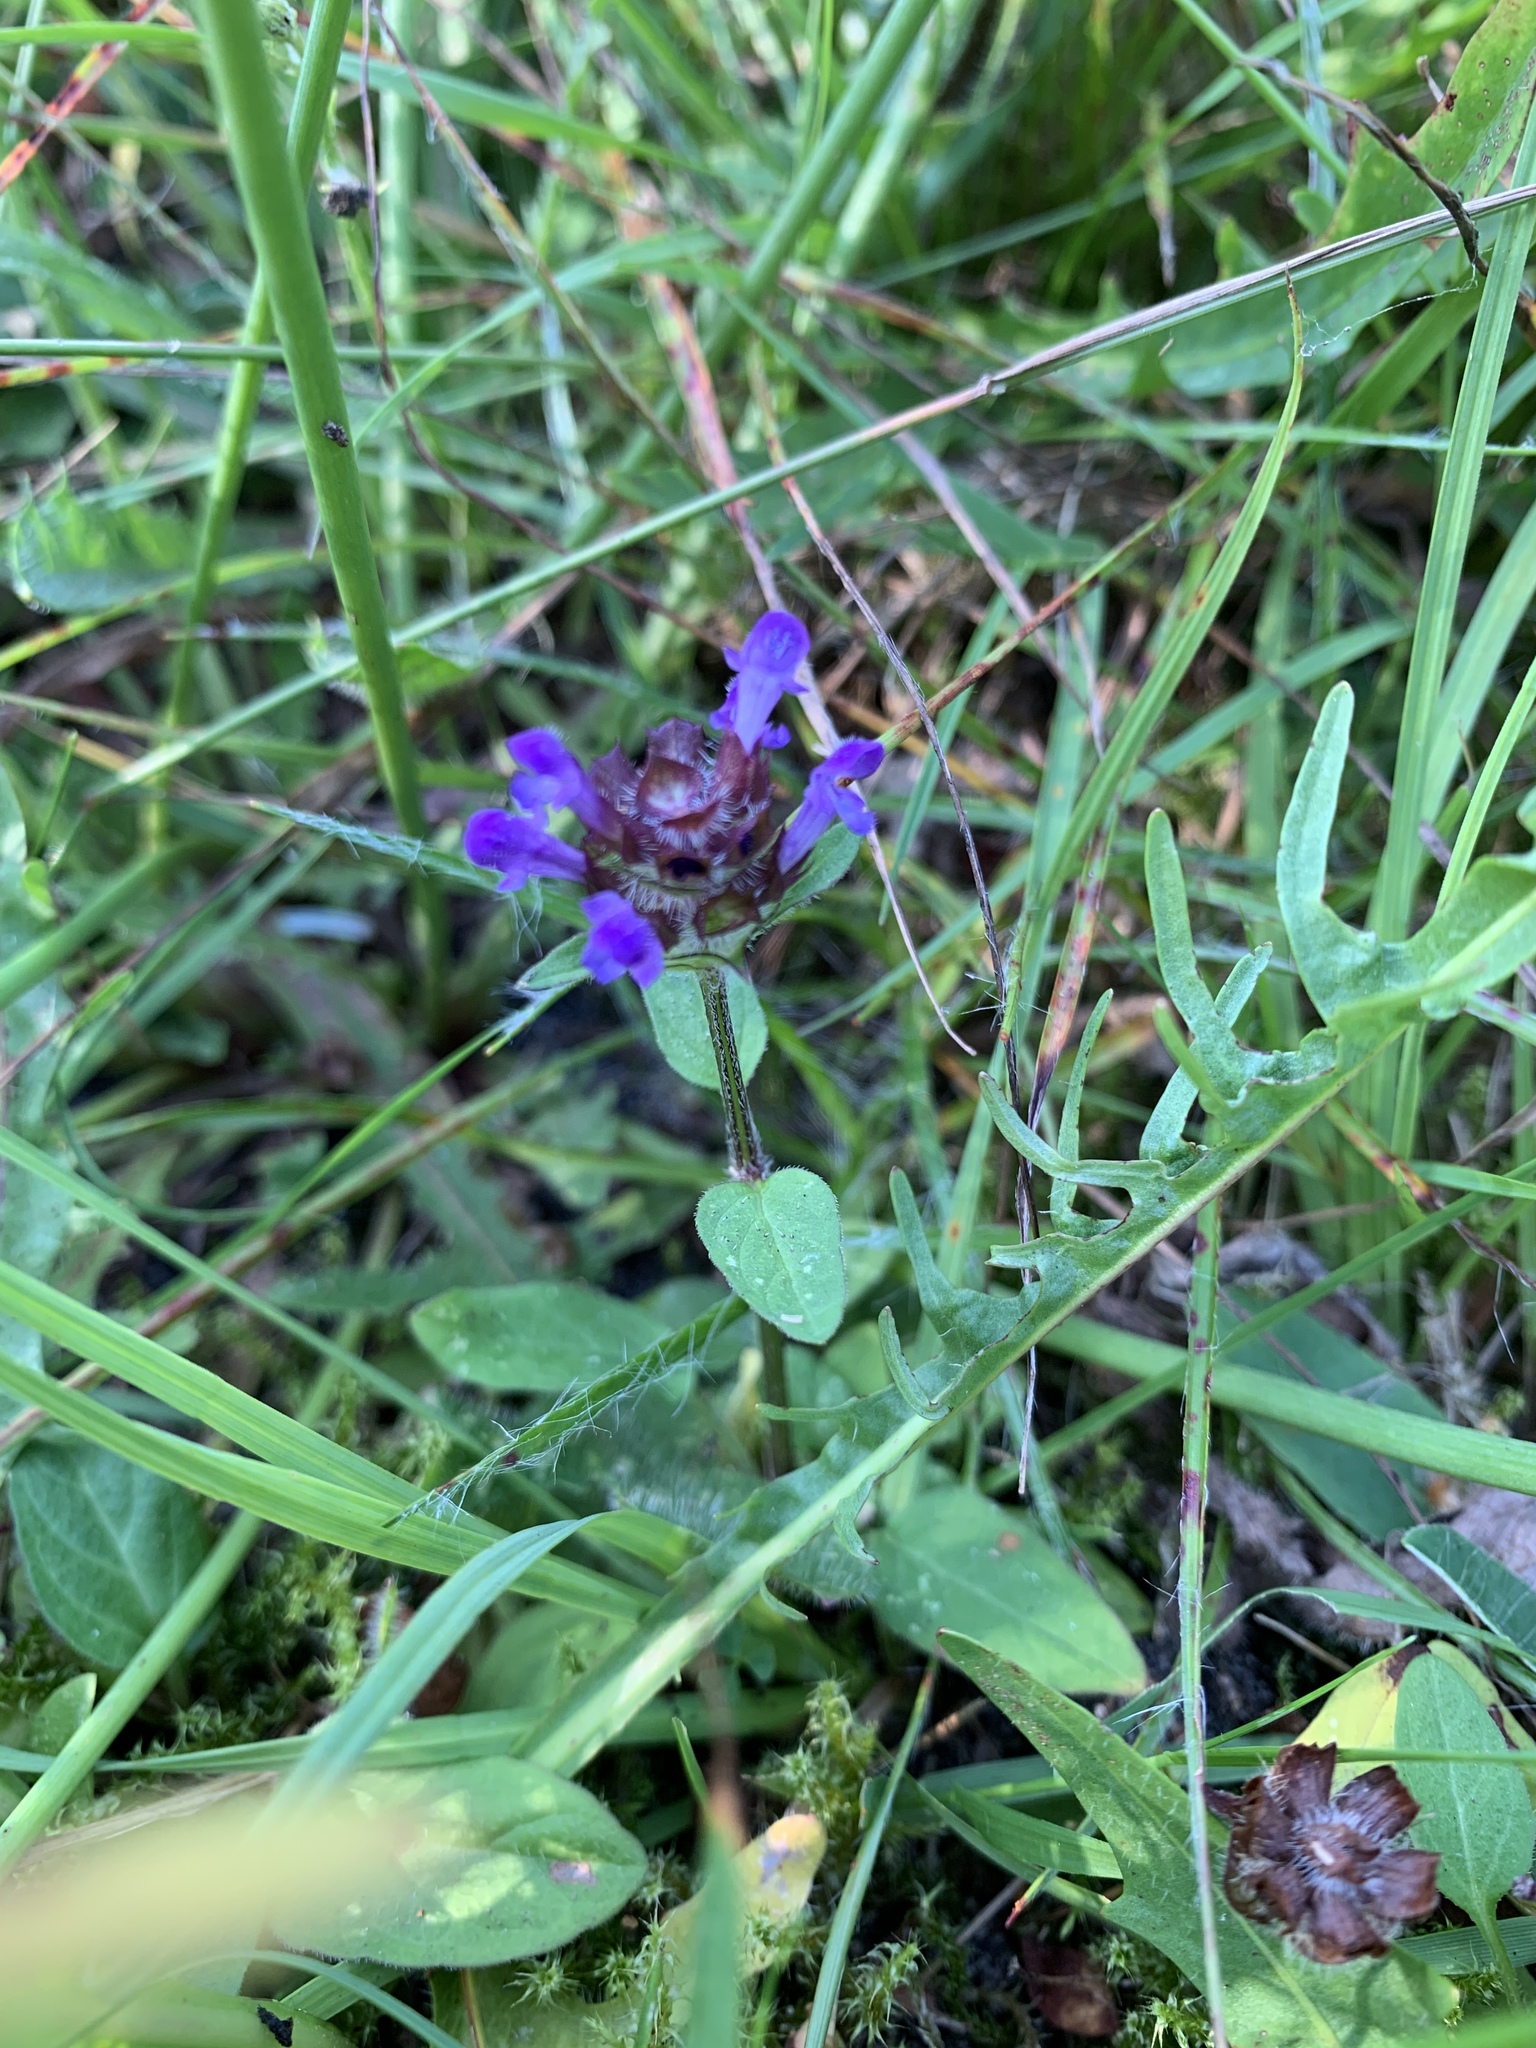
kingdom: Plantae
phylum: Tracheophyta
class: Magnoliopsida
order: Lamiales
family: Lamiaceae
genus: Prunella
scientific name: Prunella vulgaris
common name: Heal-all
